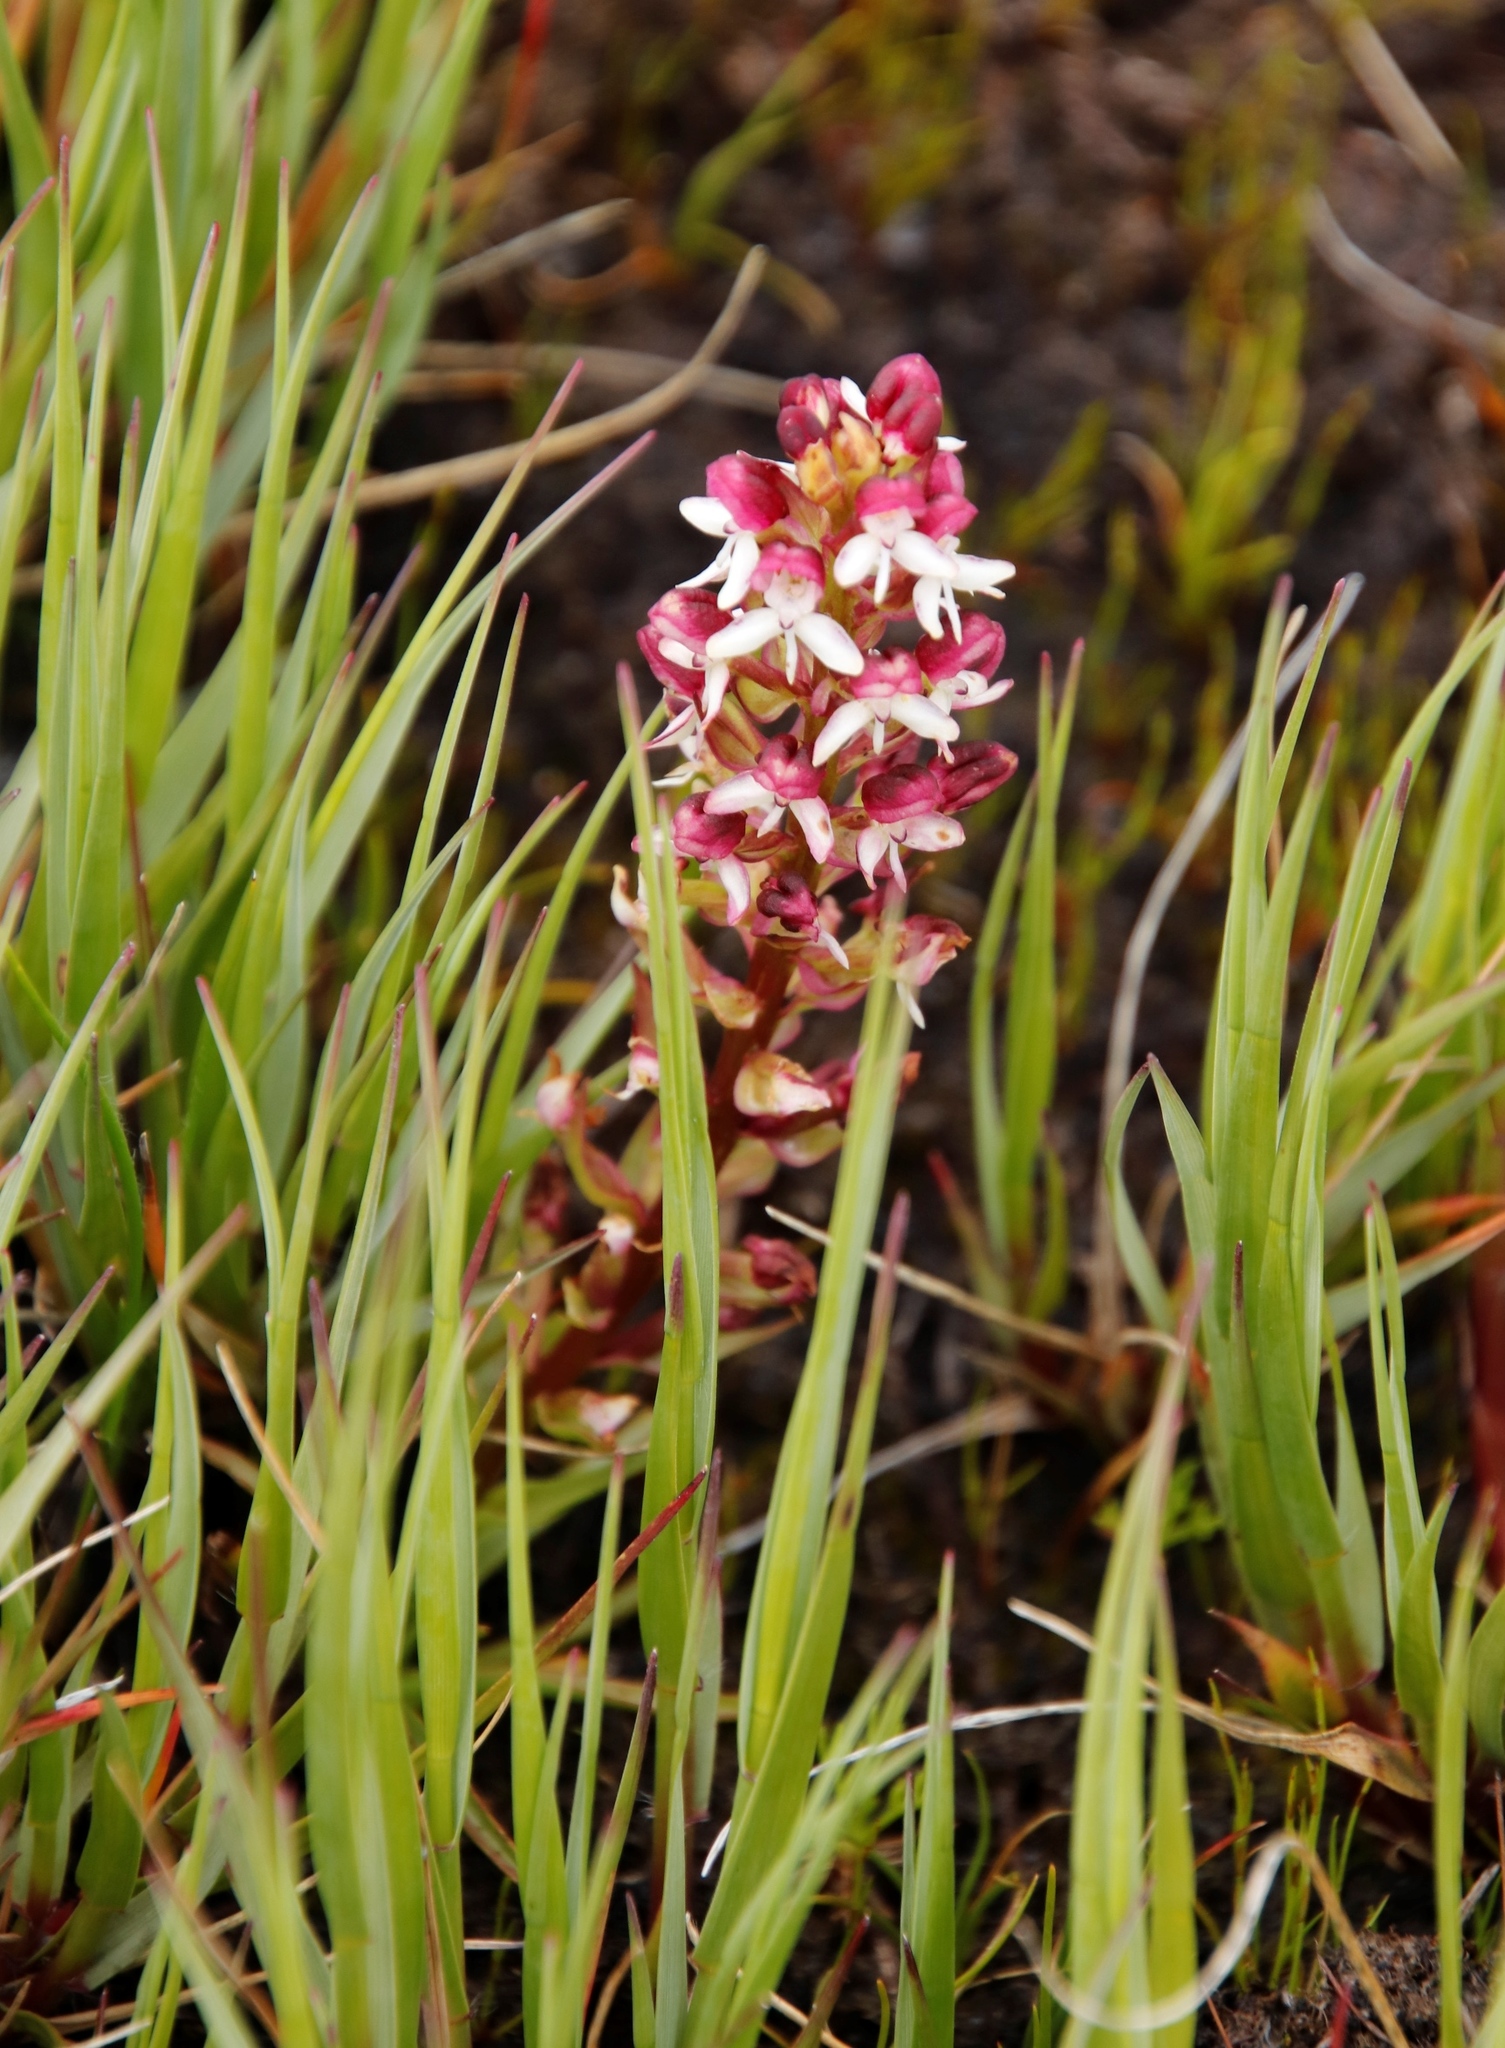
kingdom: Plantae
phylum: Tracheophyta
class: Liliopsida
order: Asparagales
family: Orchidaceae
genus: Disa
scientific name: Disa albomagentea
